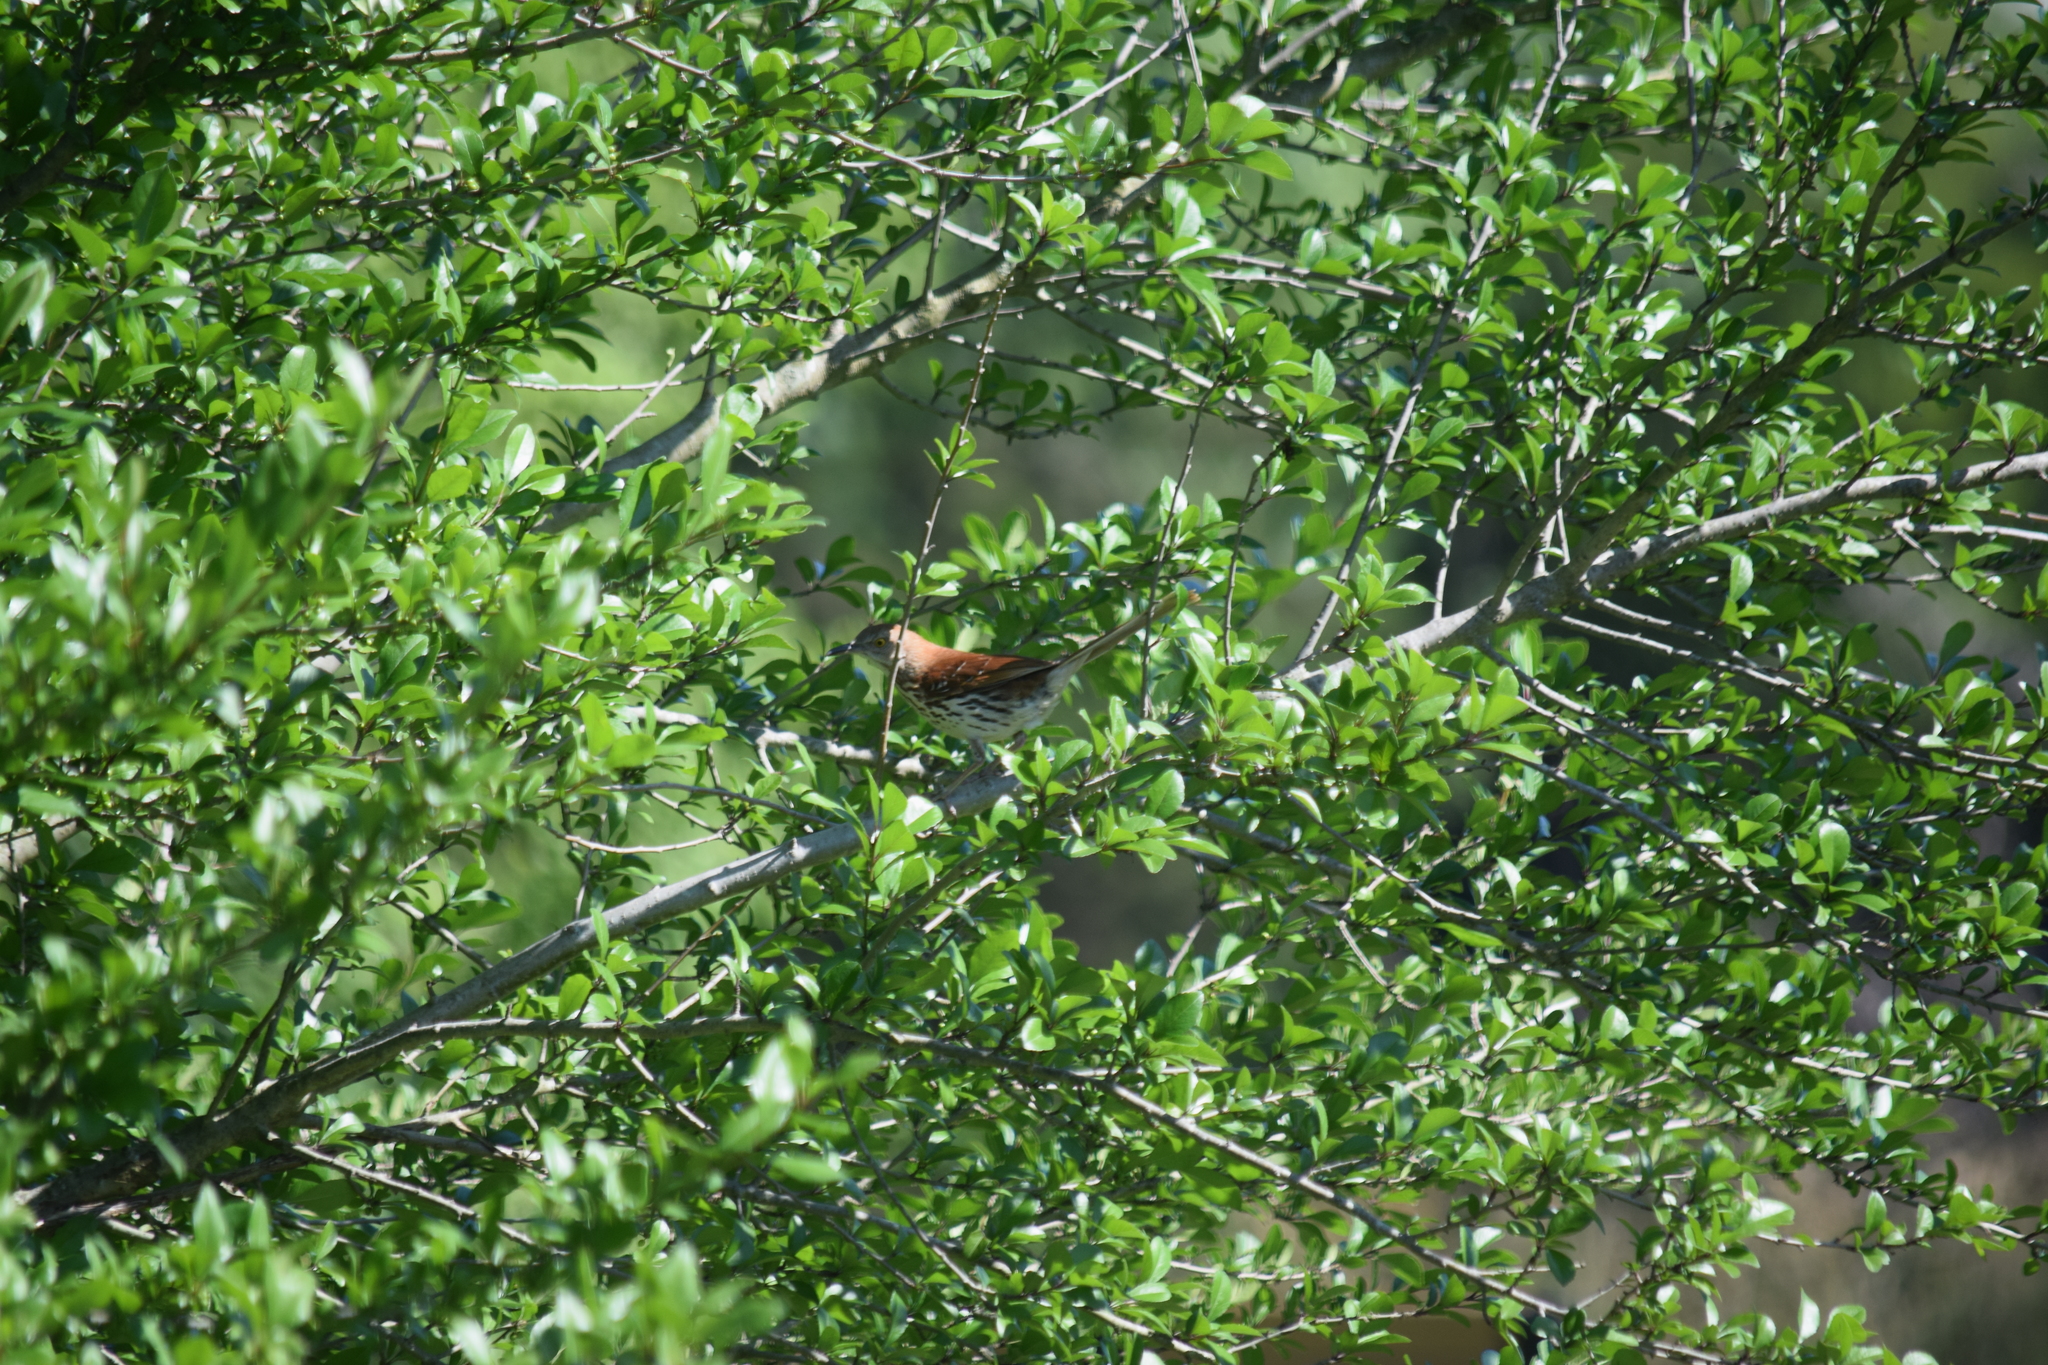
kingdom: Animalia
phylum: Chordata
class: Aves
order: Passeriformes
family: Mimidae
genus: Toxostoma
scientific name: Toxostoma rufum
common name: Brown thrasher
